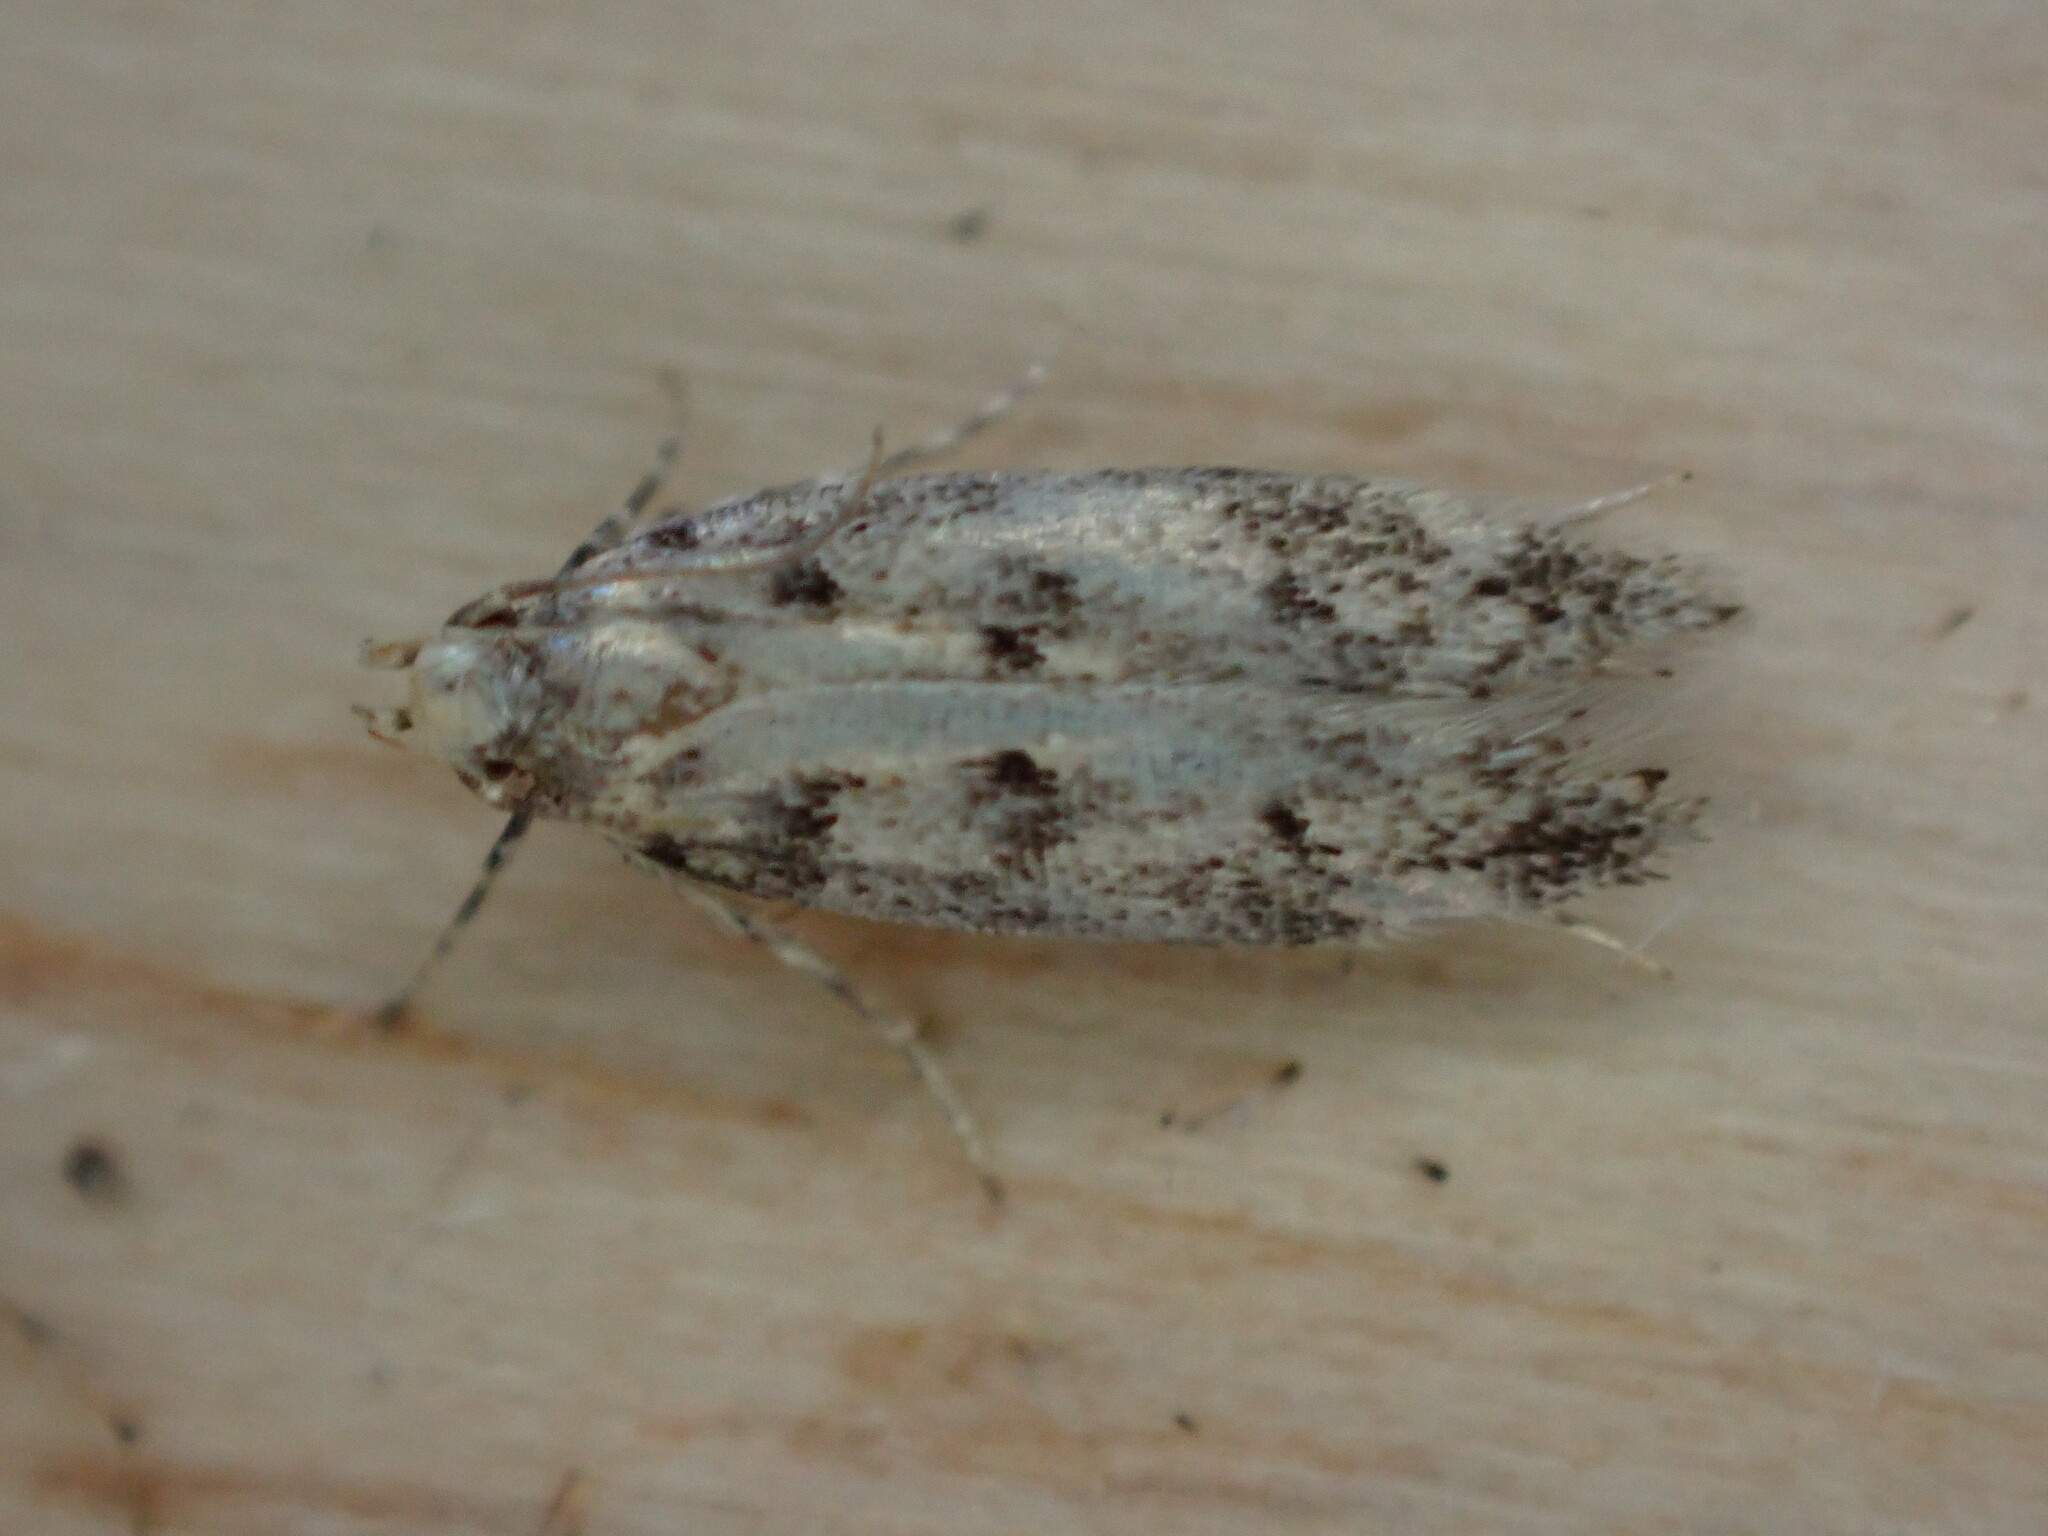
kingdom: Animalia
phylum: Arthropoda
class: Insecta
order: Lepidoptera
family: Gelechiidae
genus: Bryotropha
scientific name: Bryotropha domestica
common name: House groundling
